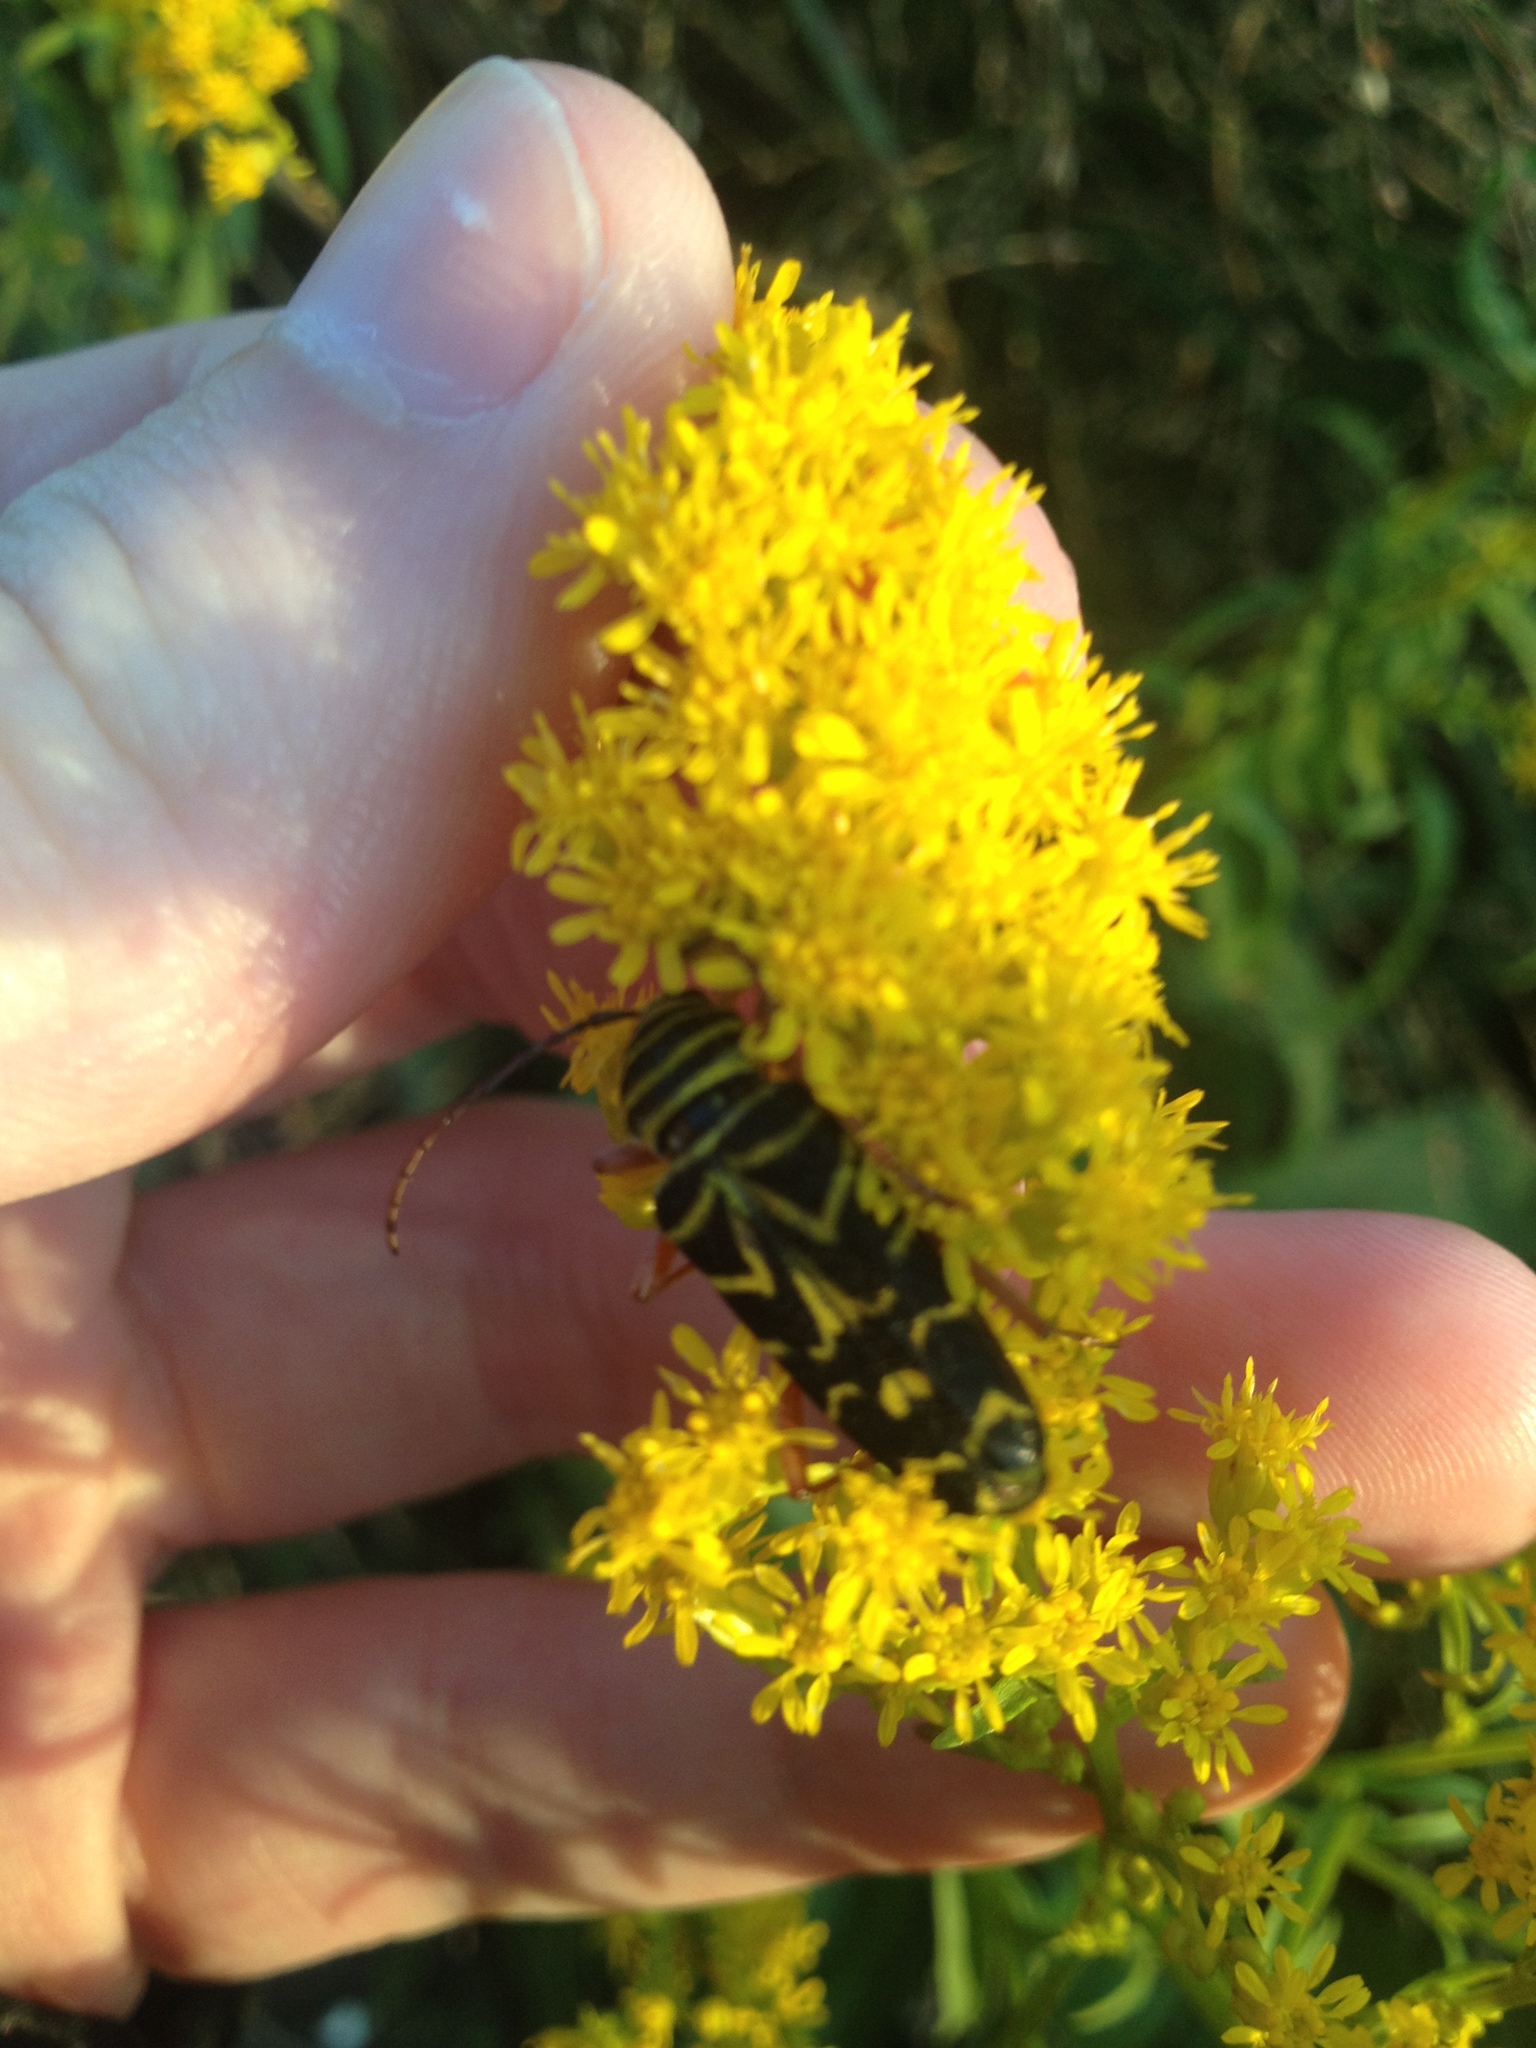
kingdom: Animalia
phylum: Arthropoda
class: Insecta
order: Coleoptera
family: Cerambycidae
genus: Megacyllene
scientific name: Megacyllene robiniae
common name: Locust borer
